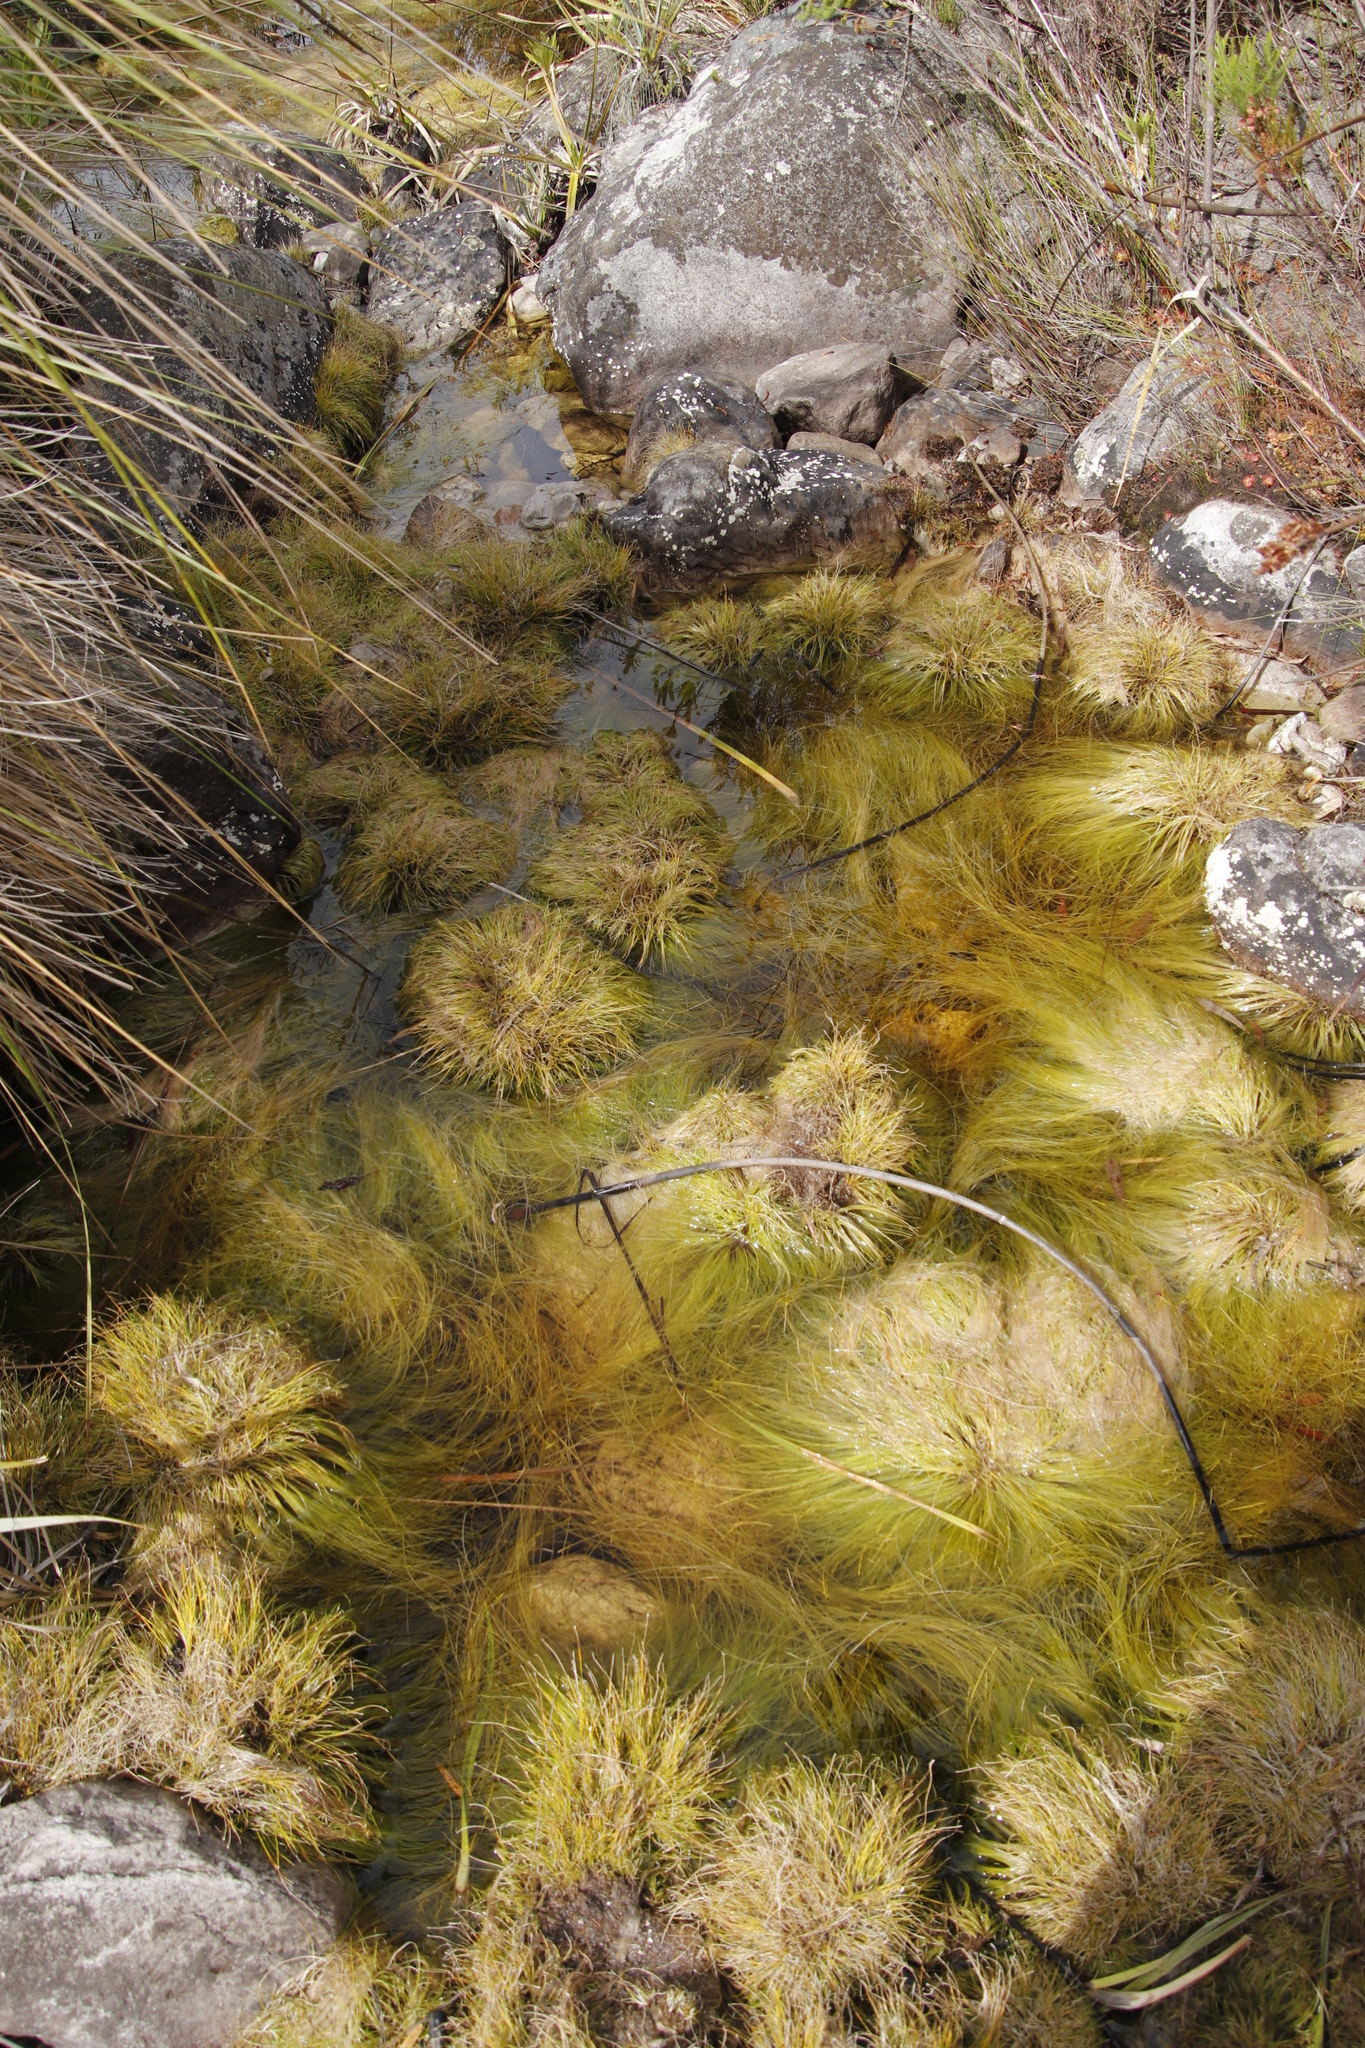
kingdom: Plantae
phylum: Tracheophyta
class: Liliopsida
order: Poales
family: Cyperaceae
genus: Isolepis
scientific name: Isolepis digitata
